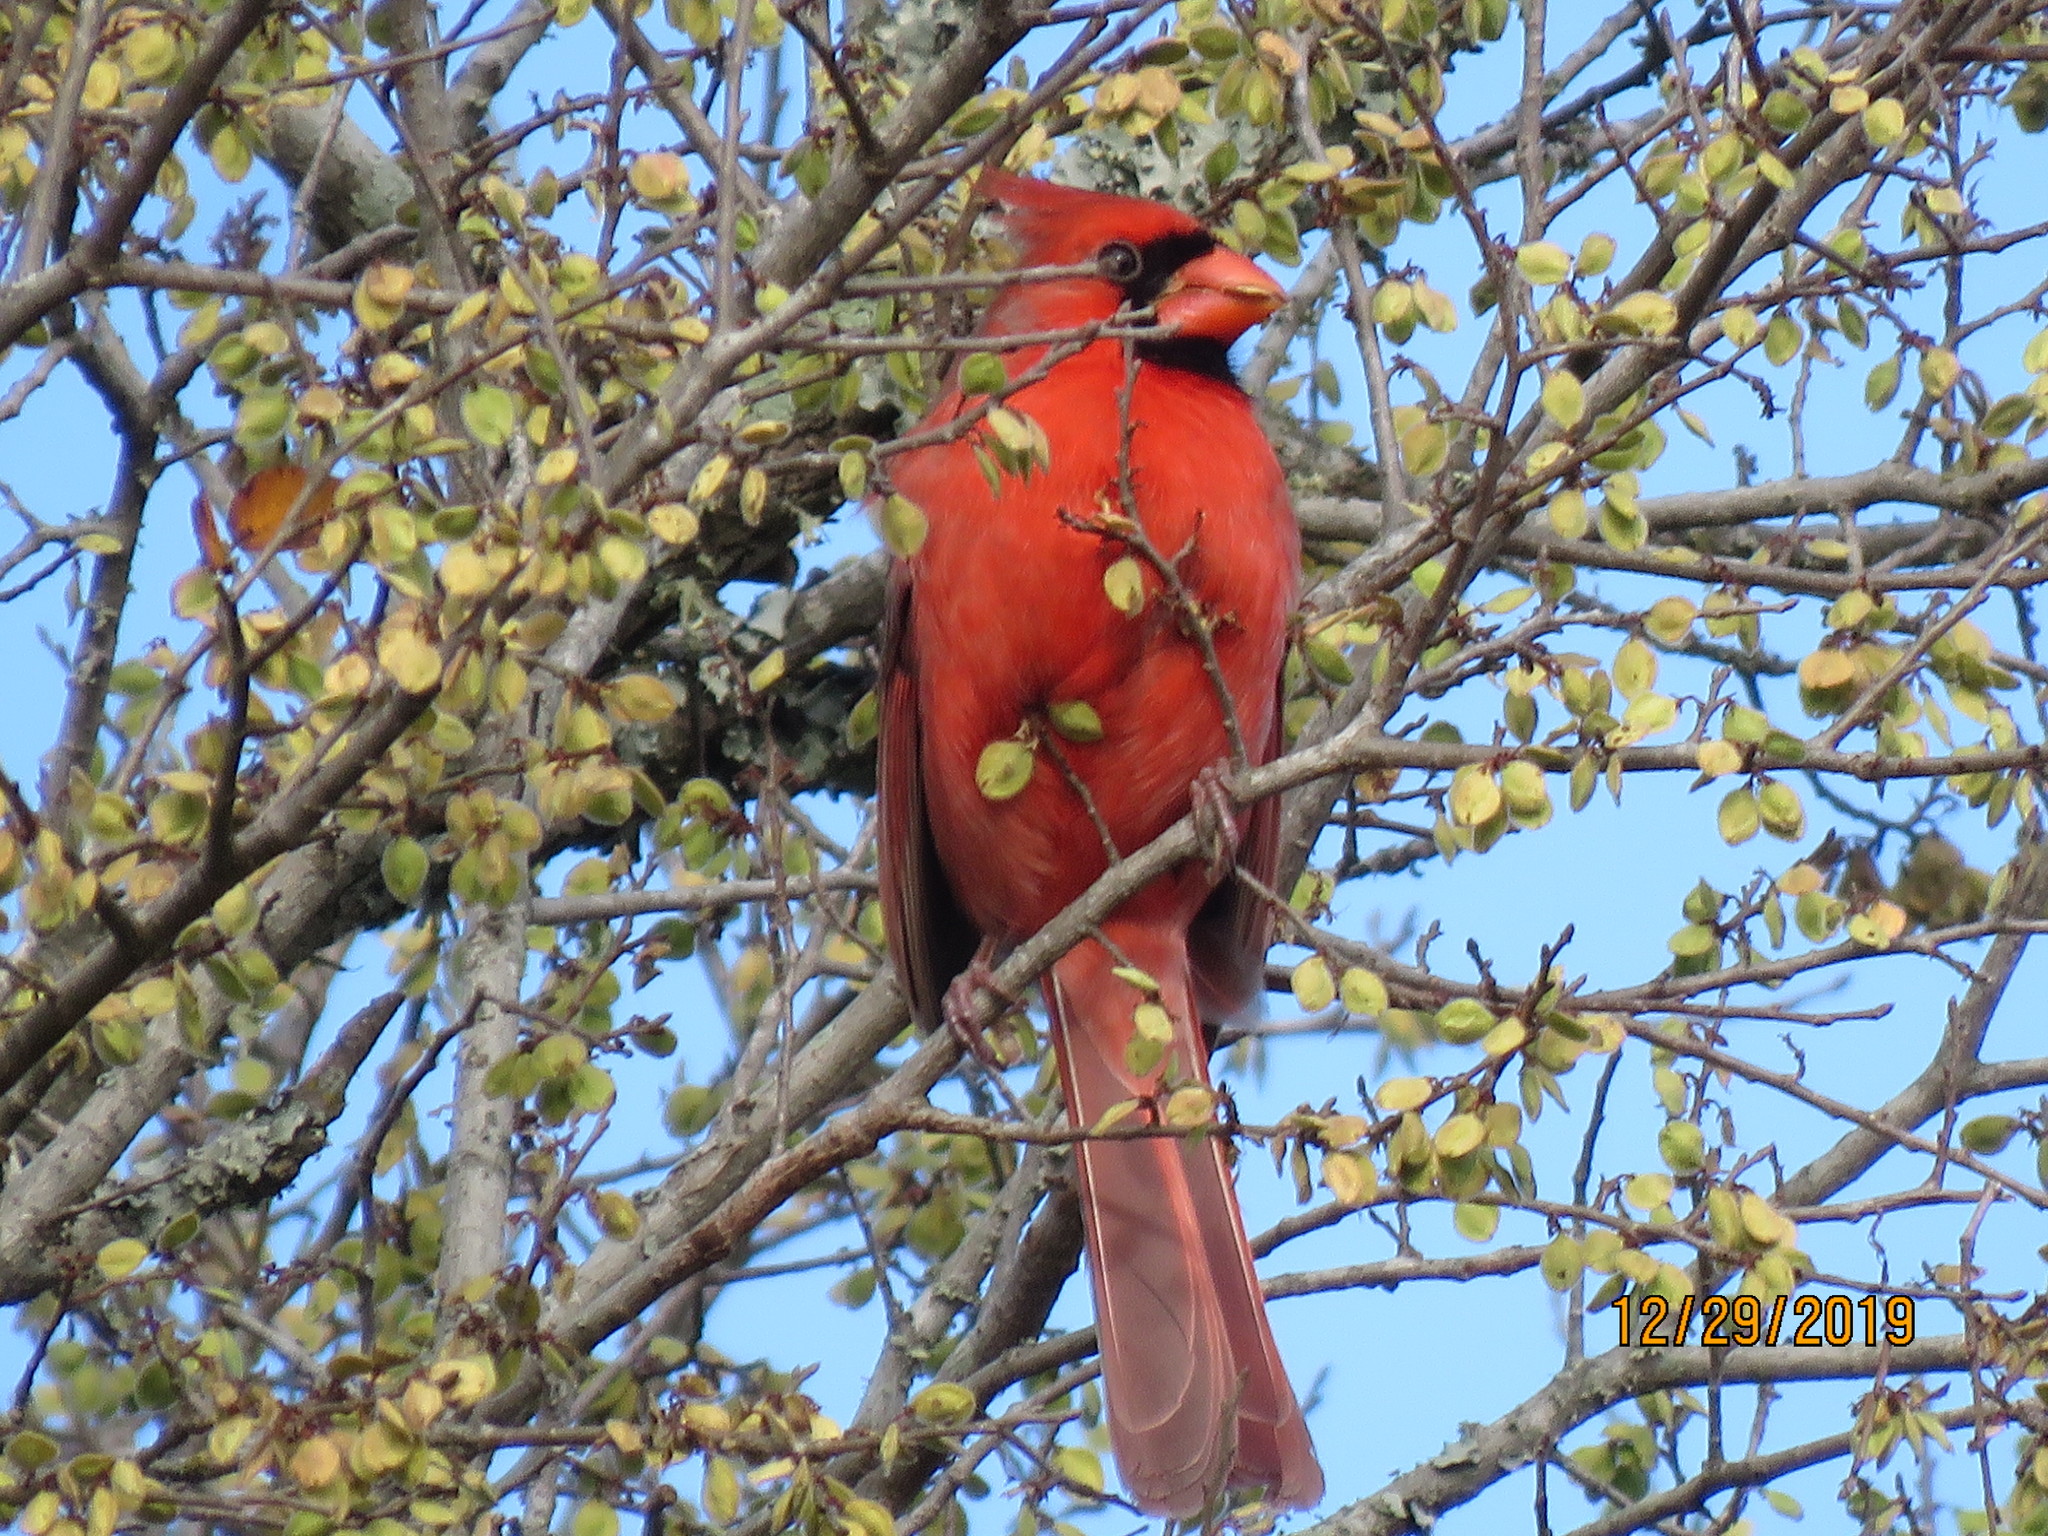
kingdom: Animalia
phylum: Chordata
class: Aves
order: Passeriformes
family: Cardinalidae
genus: Cardinalis
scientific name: Cardinalis cardinalis
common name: Northern cardinal
